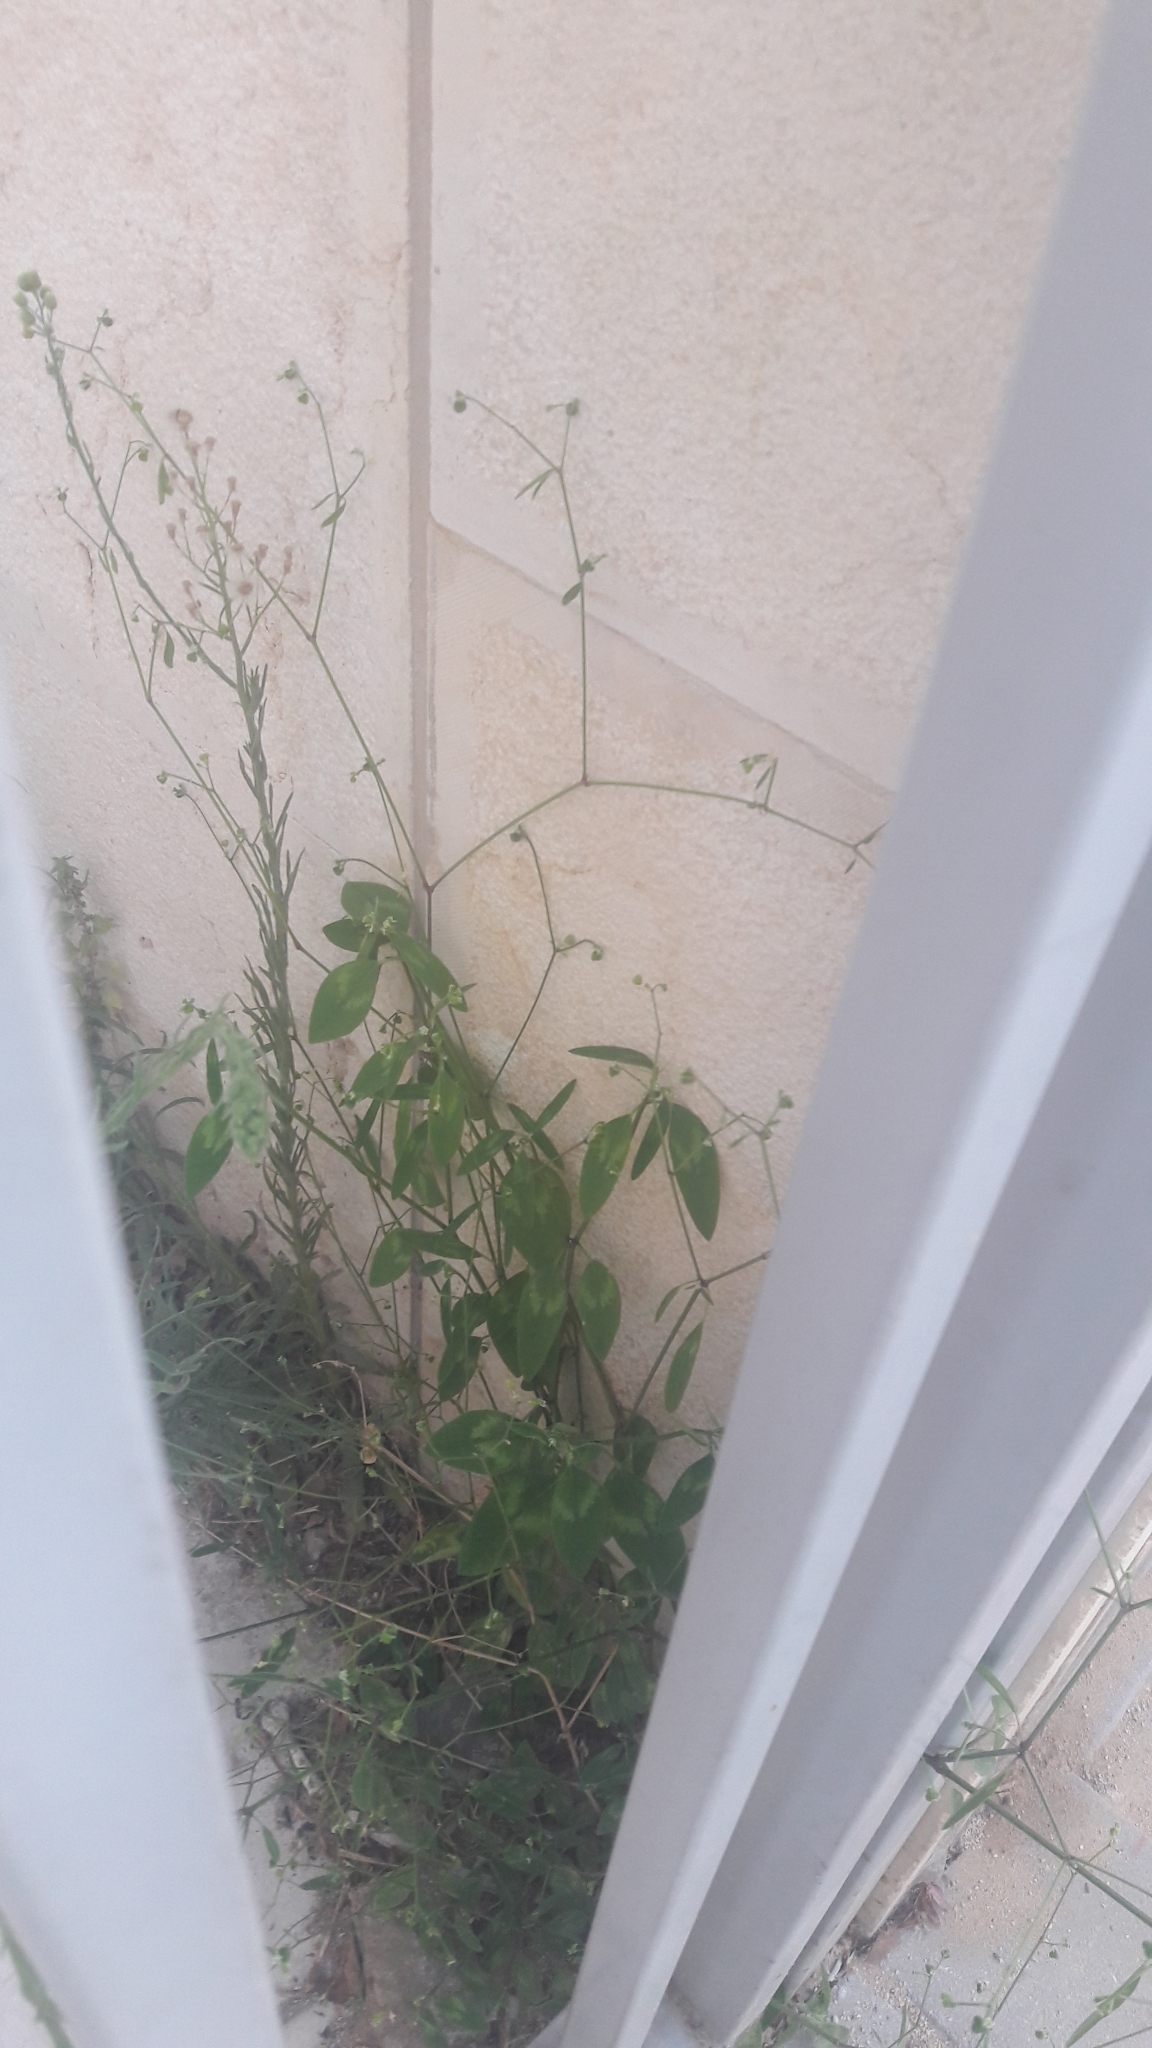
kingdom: Plantae
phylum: Tracheophyta
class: Magnoliopsida
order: Malpighiales
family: Euphorbiaceae
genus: Euphorbia
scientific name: Euphorbia graminea
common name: Grassleaf spurge
